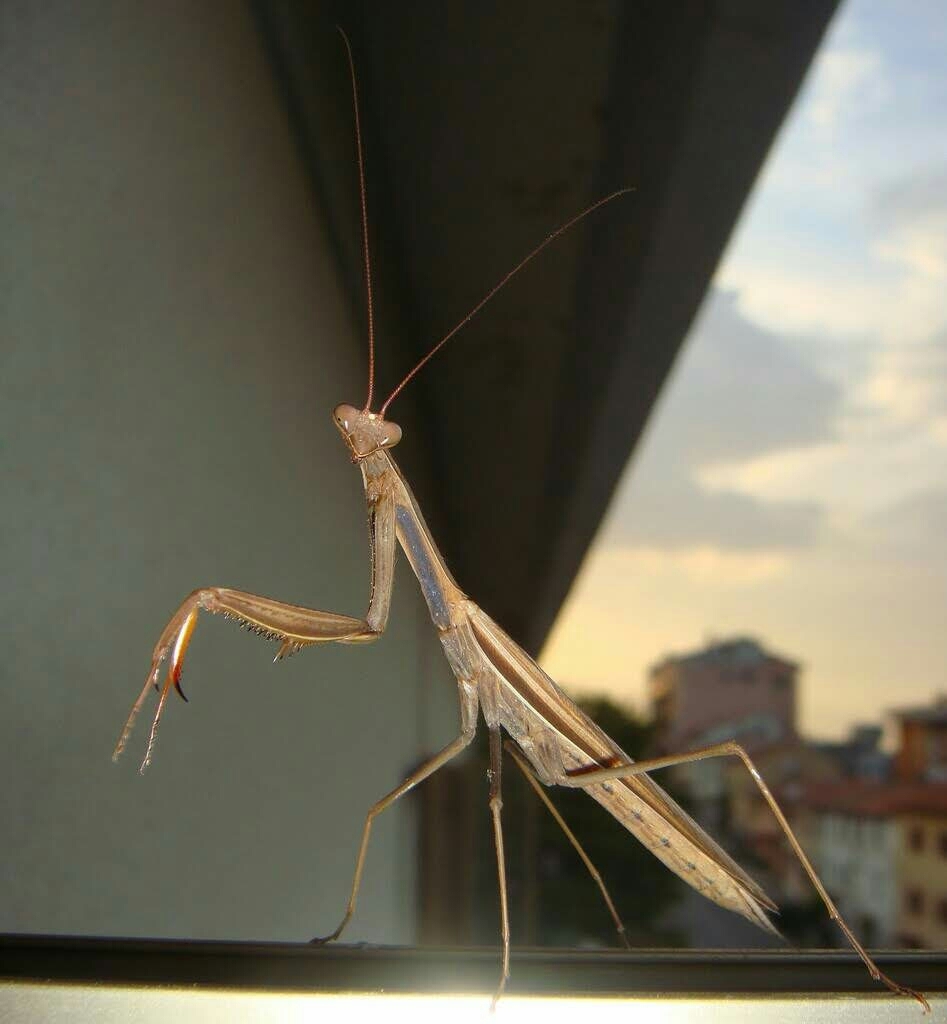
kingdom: Animalia
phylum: Arthropoda
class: Insecta
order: Mantodea
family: Mantidae
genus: Mantis
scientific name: Mantis religiosa
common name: Praying mantis
